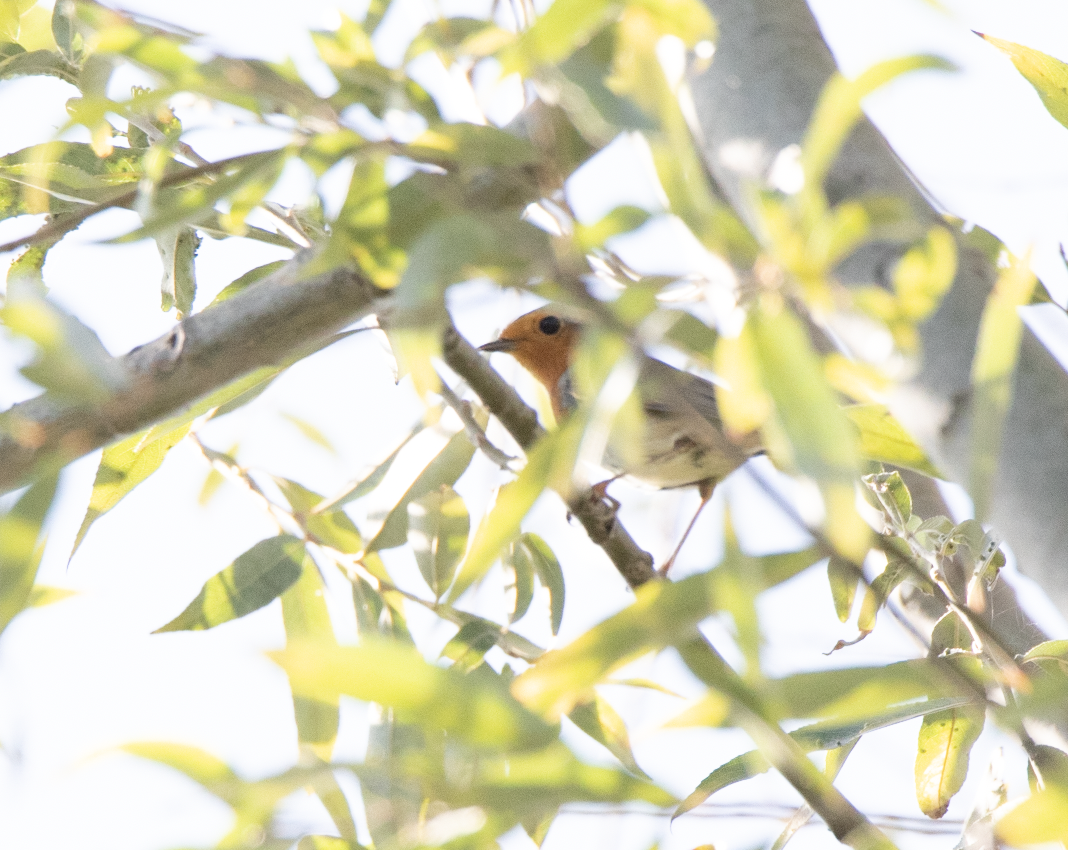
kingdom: Animalia
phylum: Chordata
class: Aves
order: Passeriformes
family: Muscicapidae
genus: Erithacus
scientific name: Erithacus rubecula
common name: European robin
